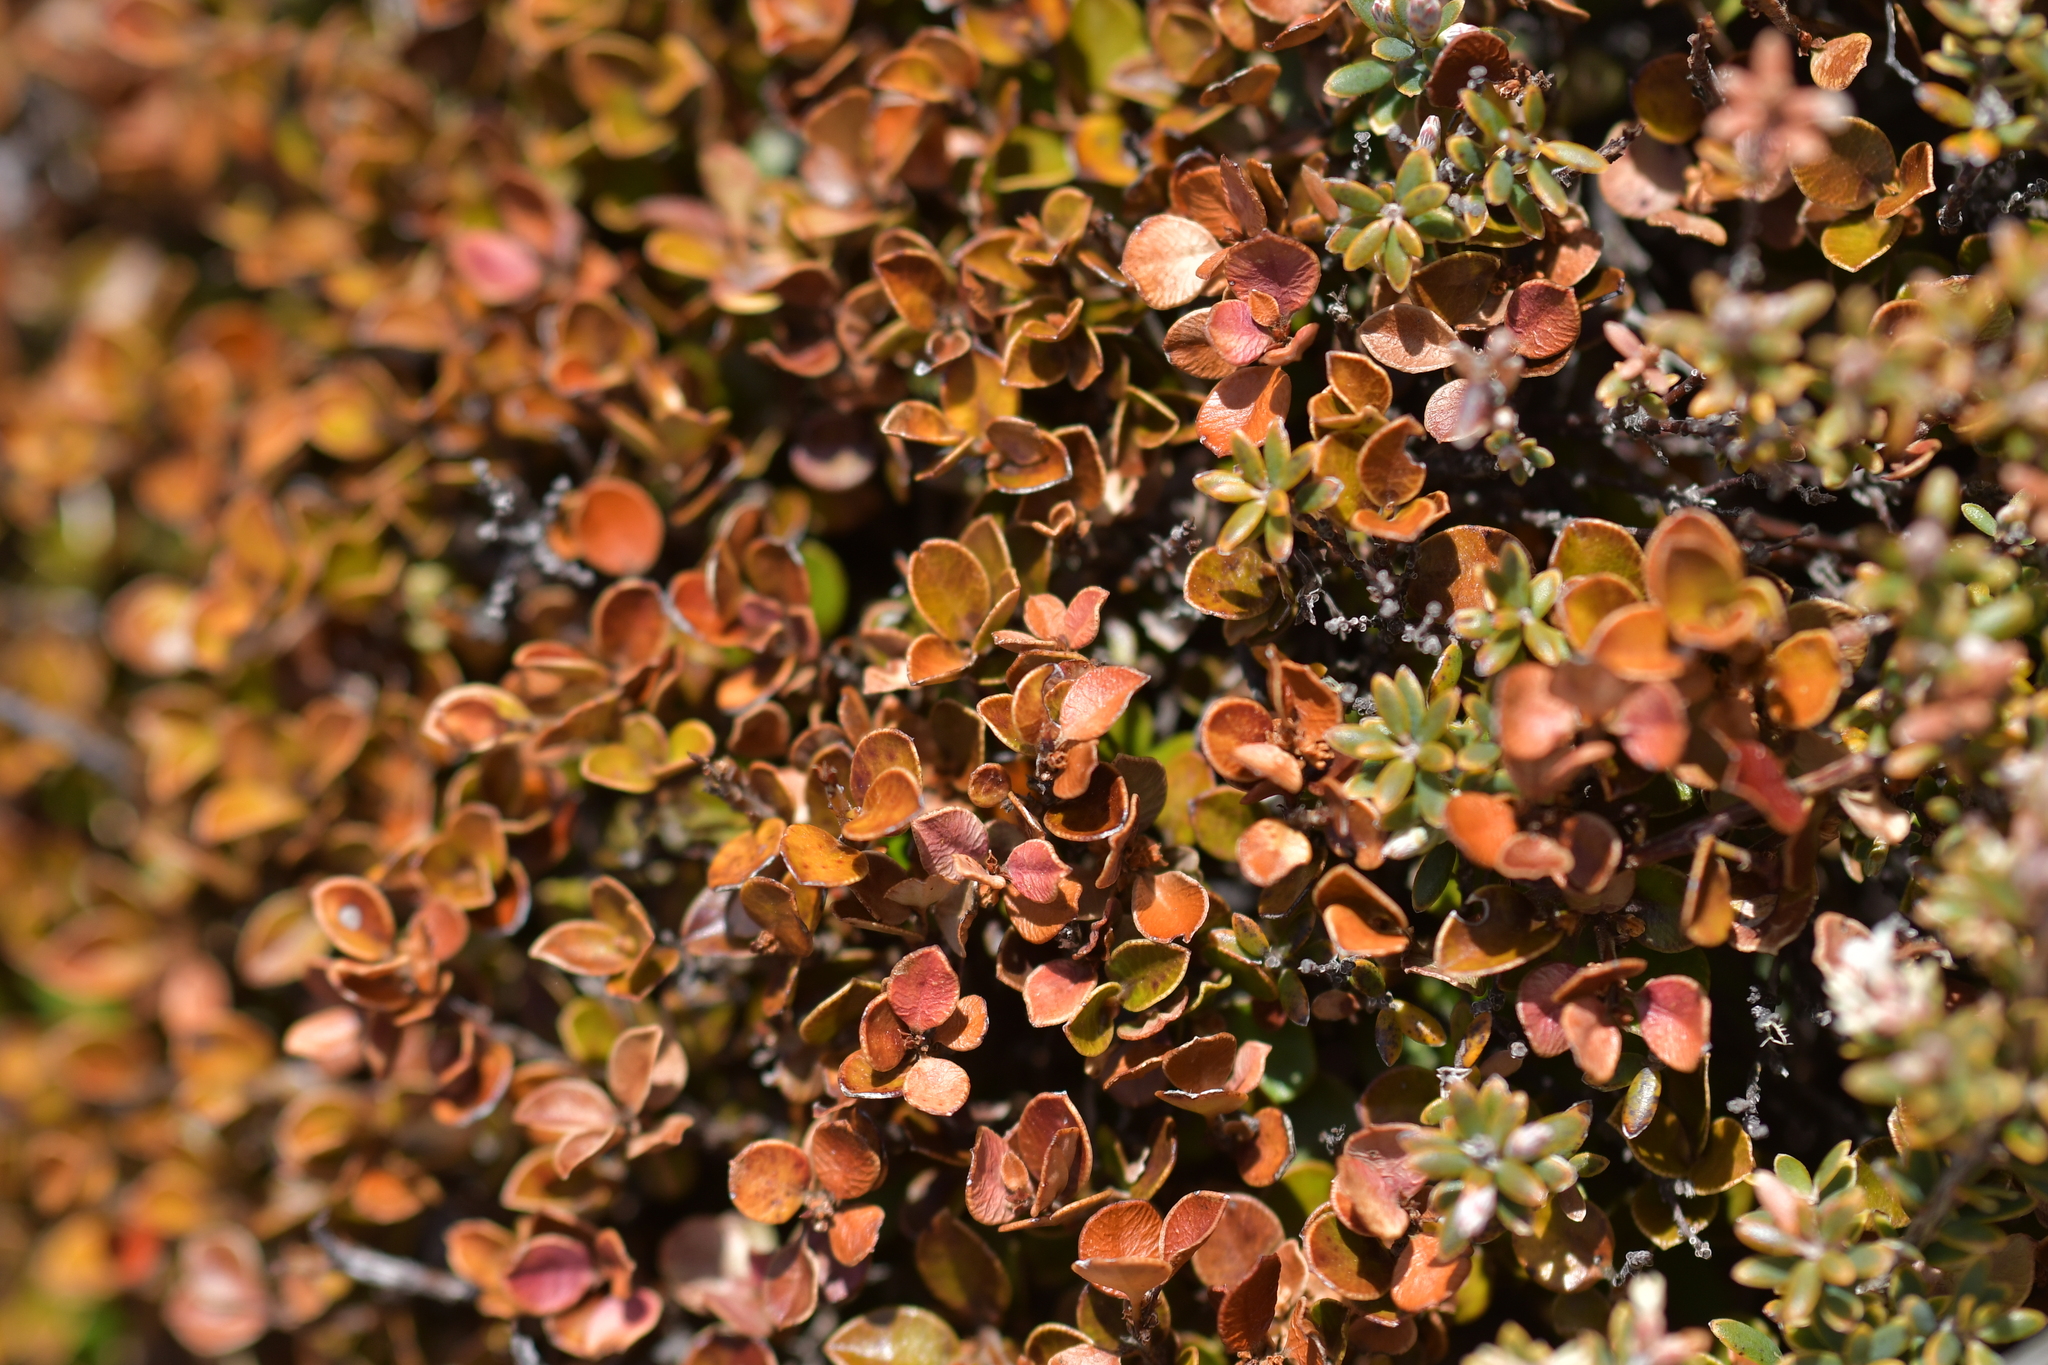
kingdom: Plantae
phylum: Tracheophyta
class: Magnoliopsida
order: Ericales
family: Primulaceae
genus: Myrsine
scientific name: Myrsine nummularia
